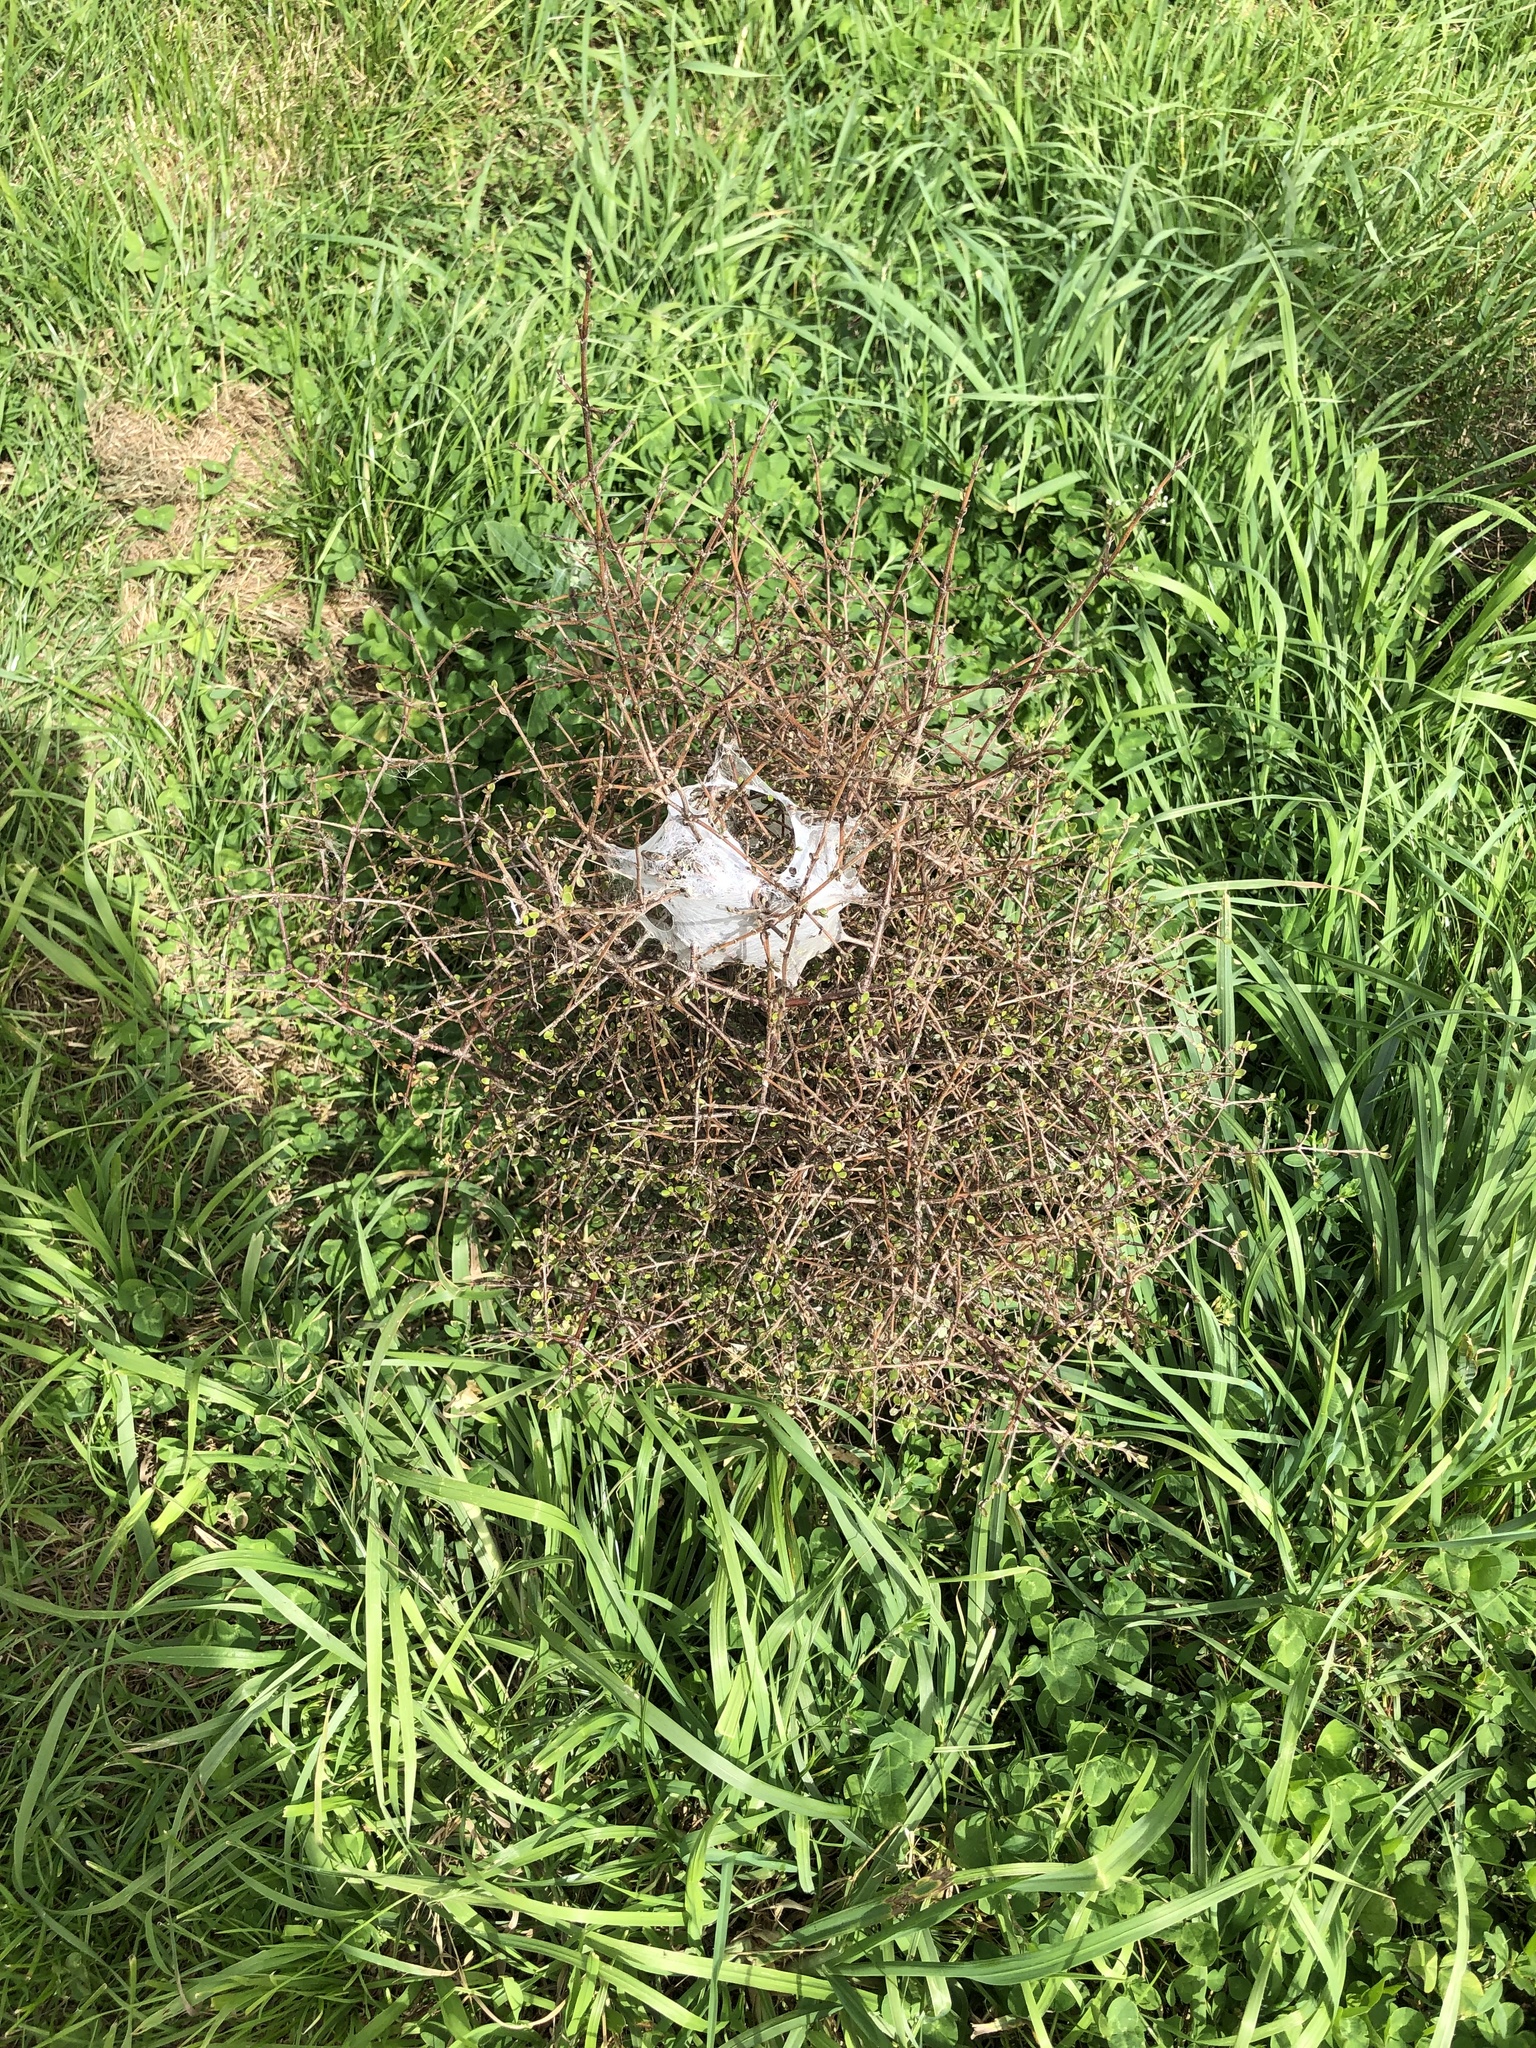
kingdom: Animalia
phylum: Arthropoda
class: Arachnida
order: Araneae
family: Pisauridae
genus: Dolomedes
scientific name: Dolomedes minor
